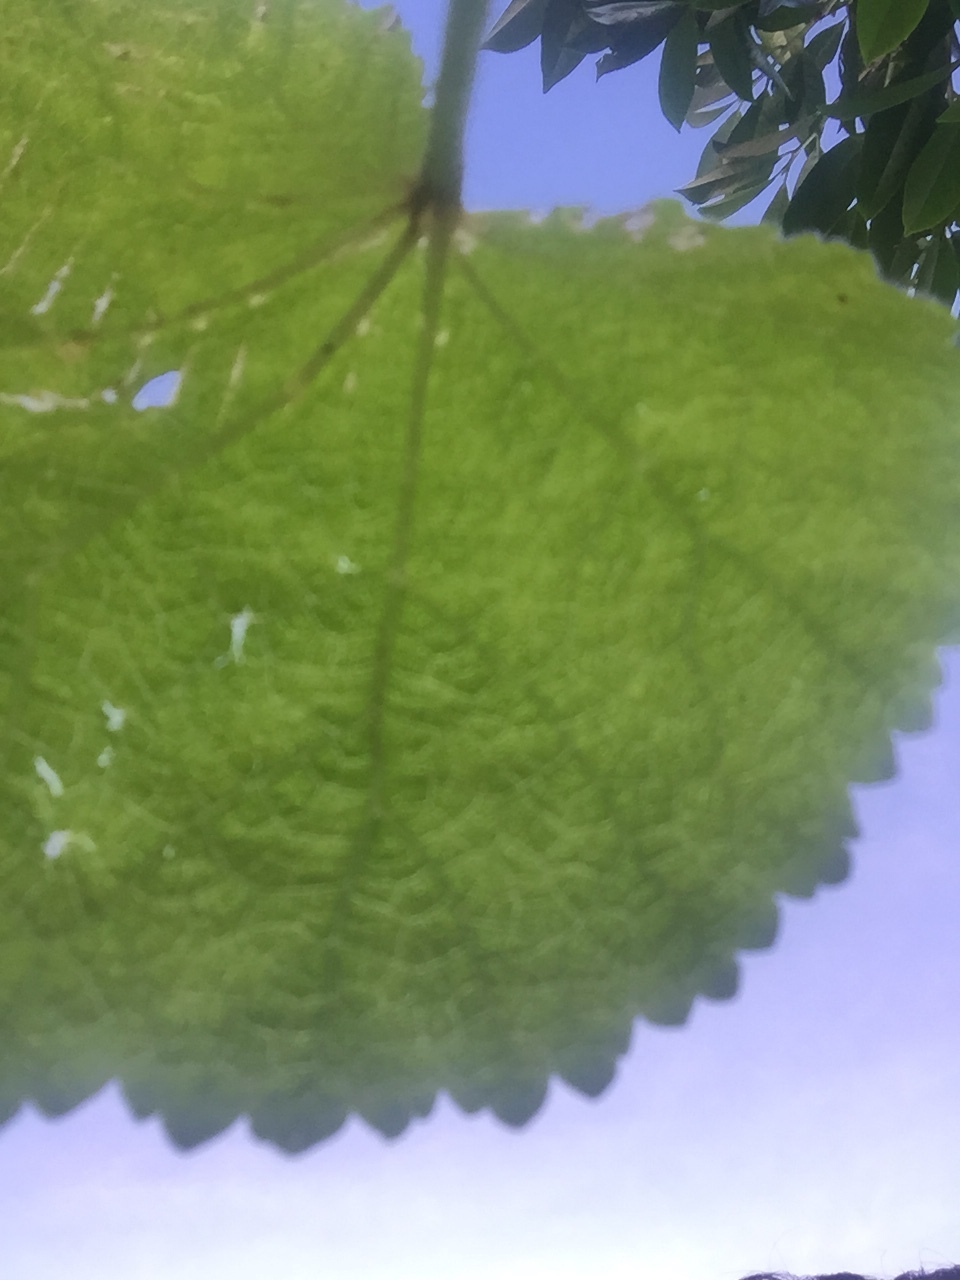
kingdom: Plantae
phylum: Tracheophyta
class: Magnoliopsida
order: Malvales
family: Malvaceae
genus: Alcea
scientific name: Alcea rosea
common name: Hollyhock
